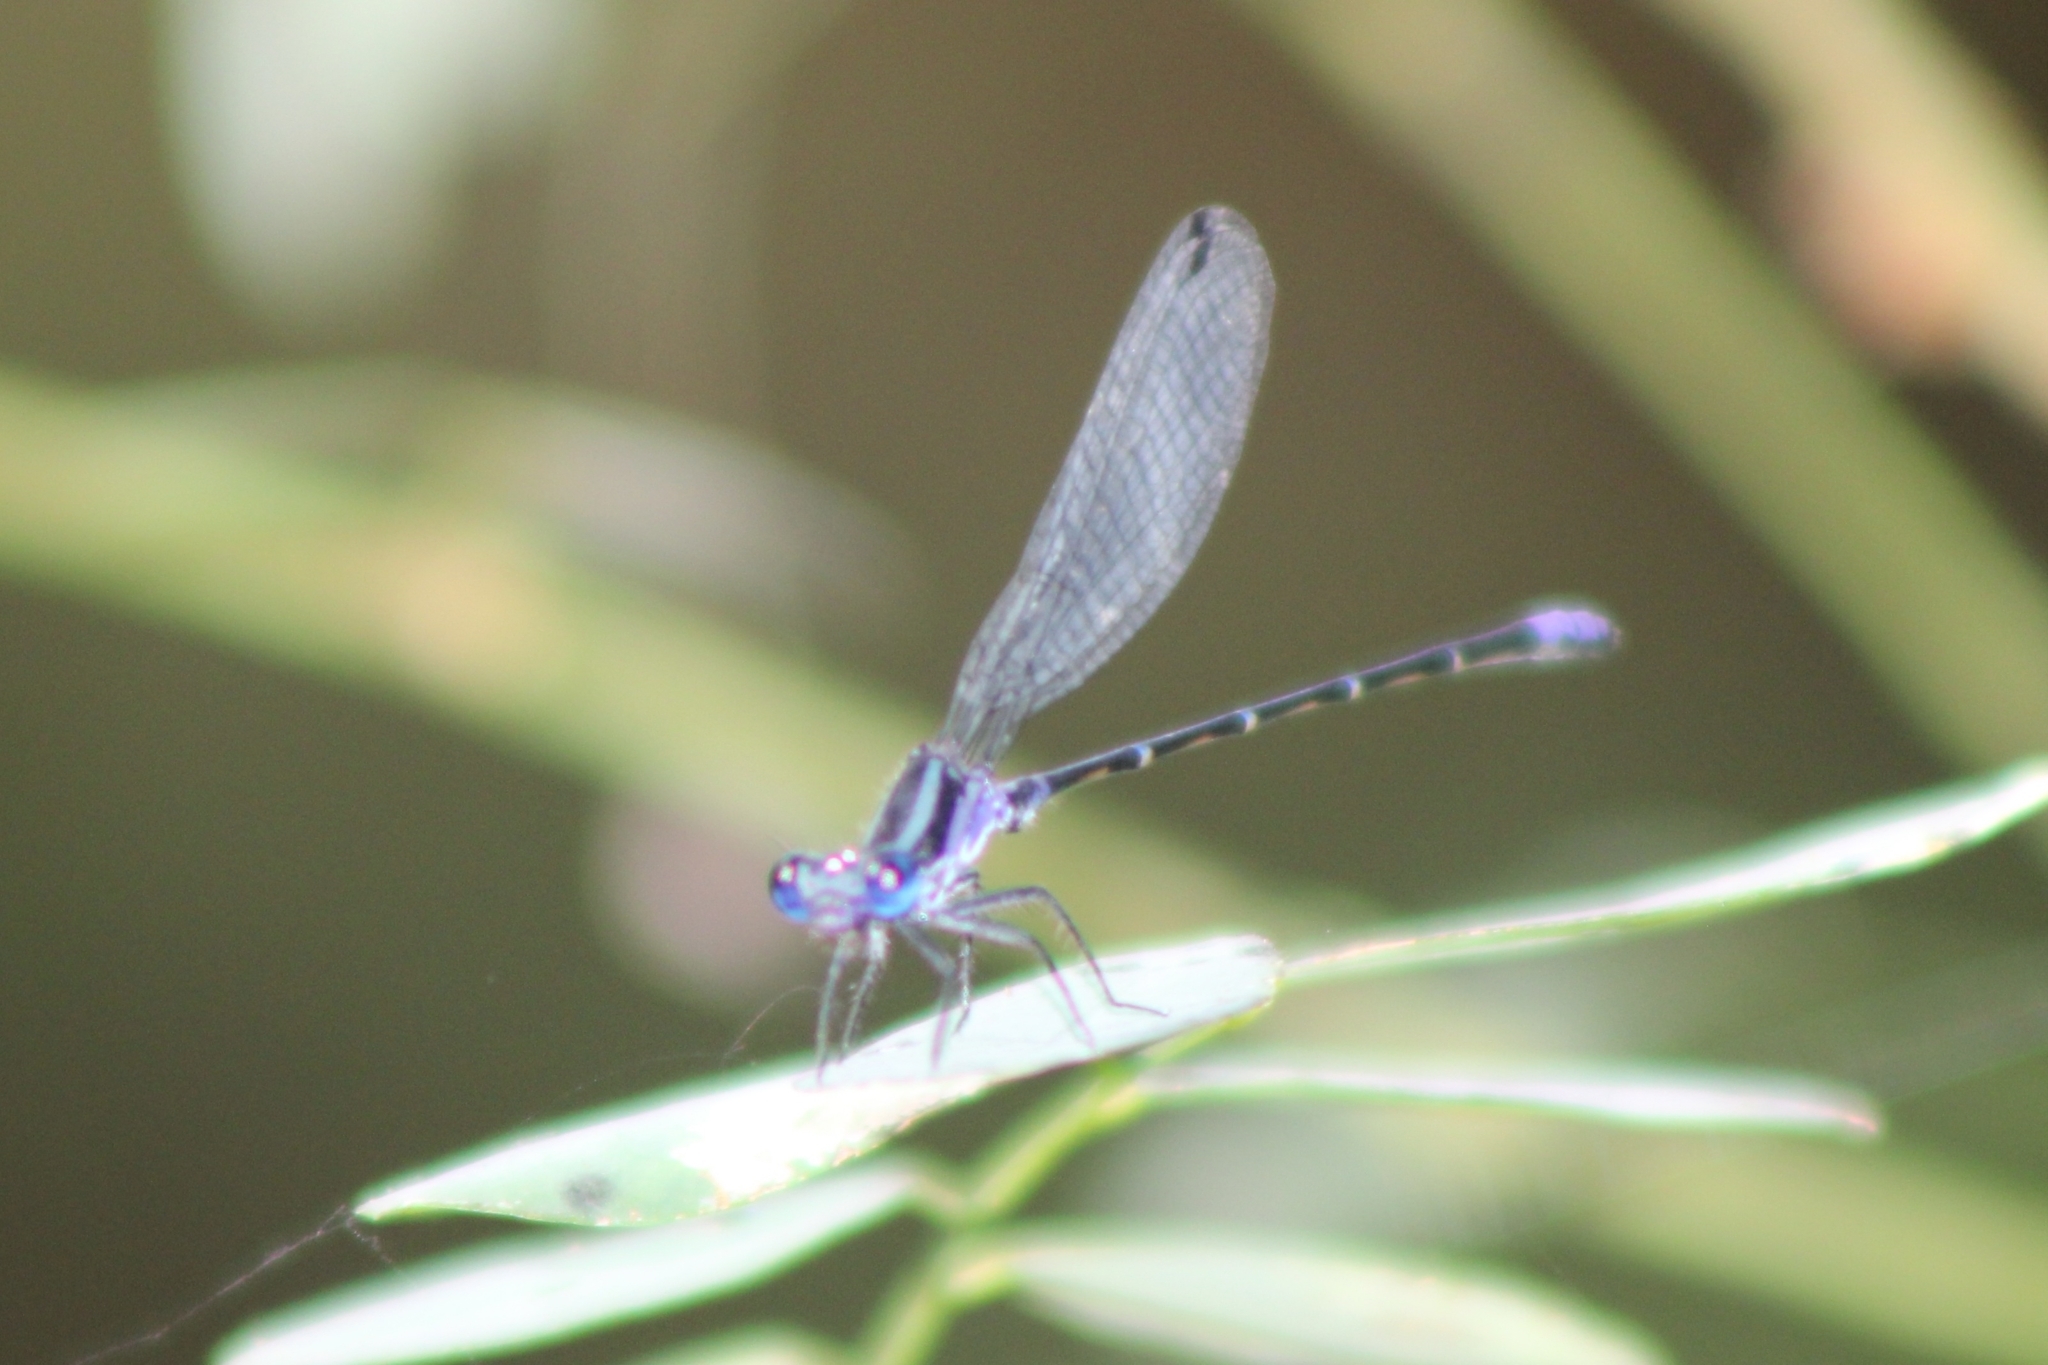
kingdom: Animalia
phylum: Arthropoda
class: Insecta
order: Odonata
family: Coenagrionidae
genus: Argia
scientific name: Argia pulla
